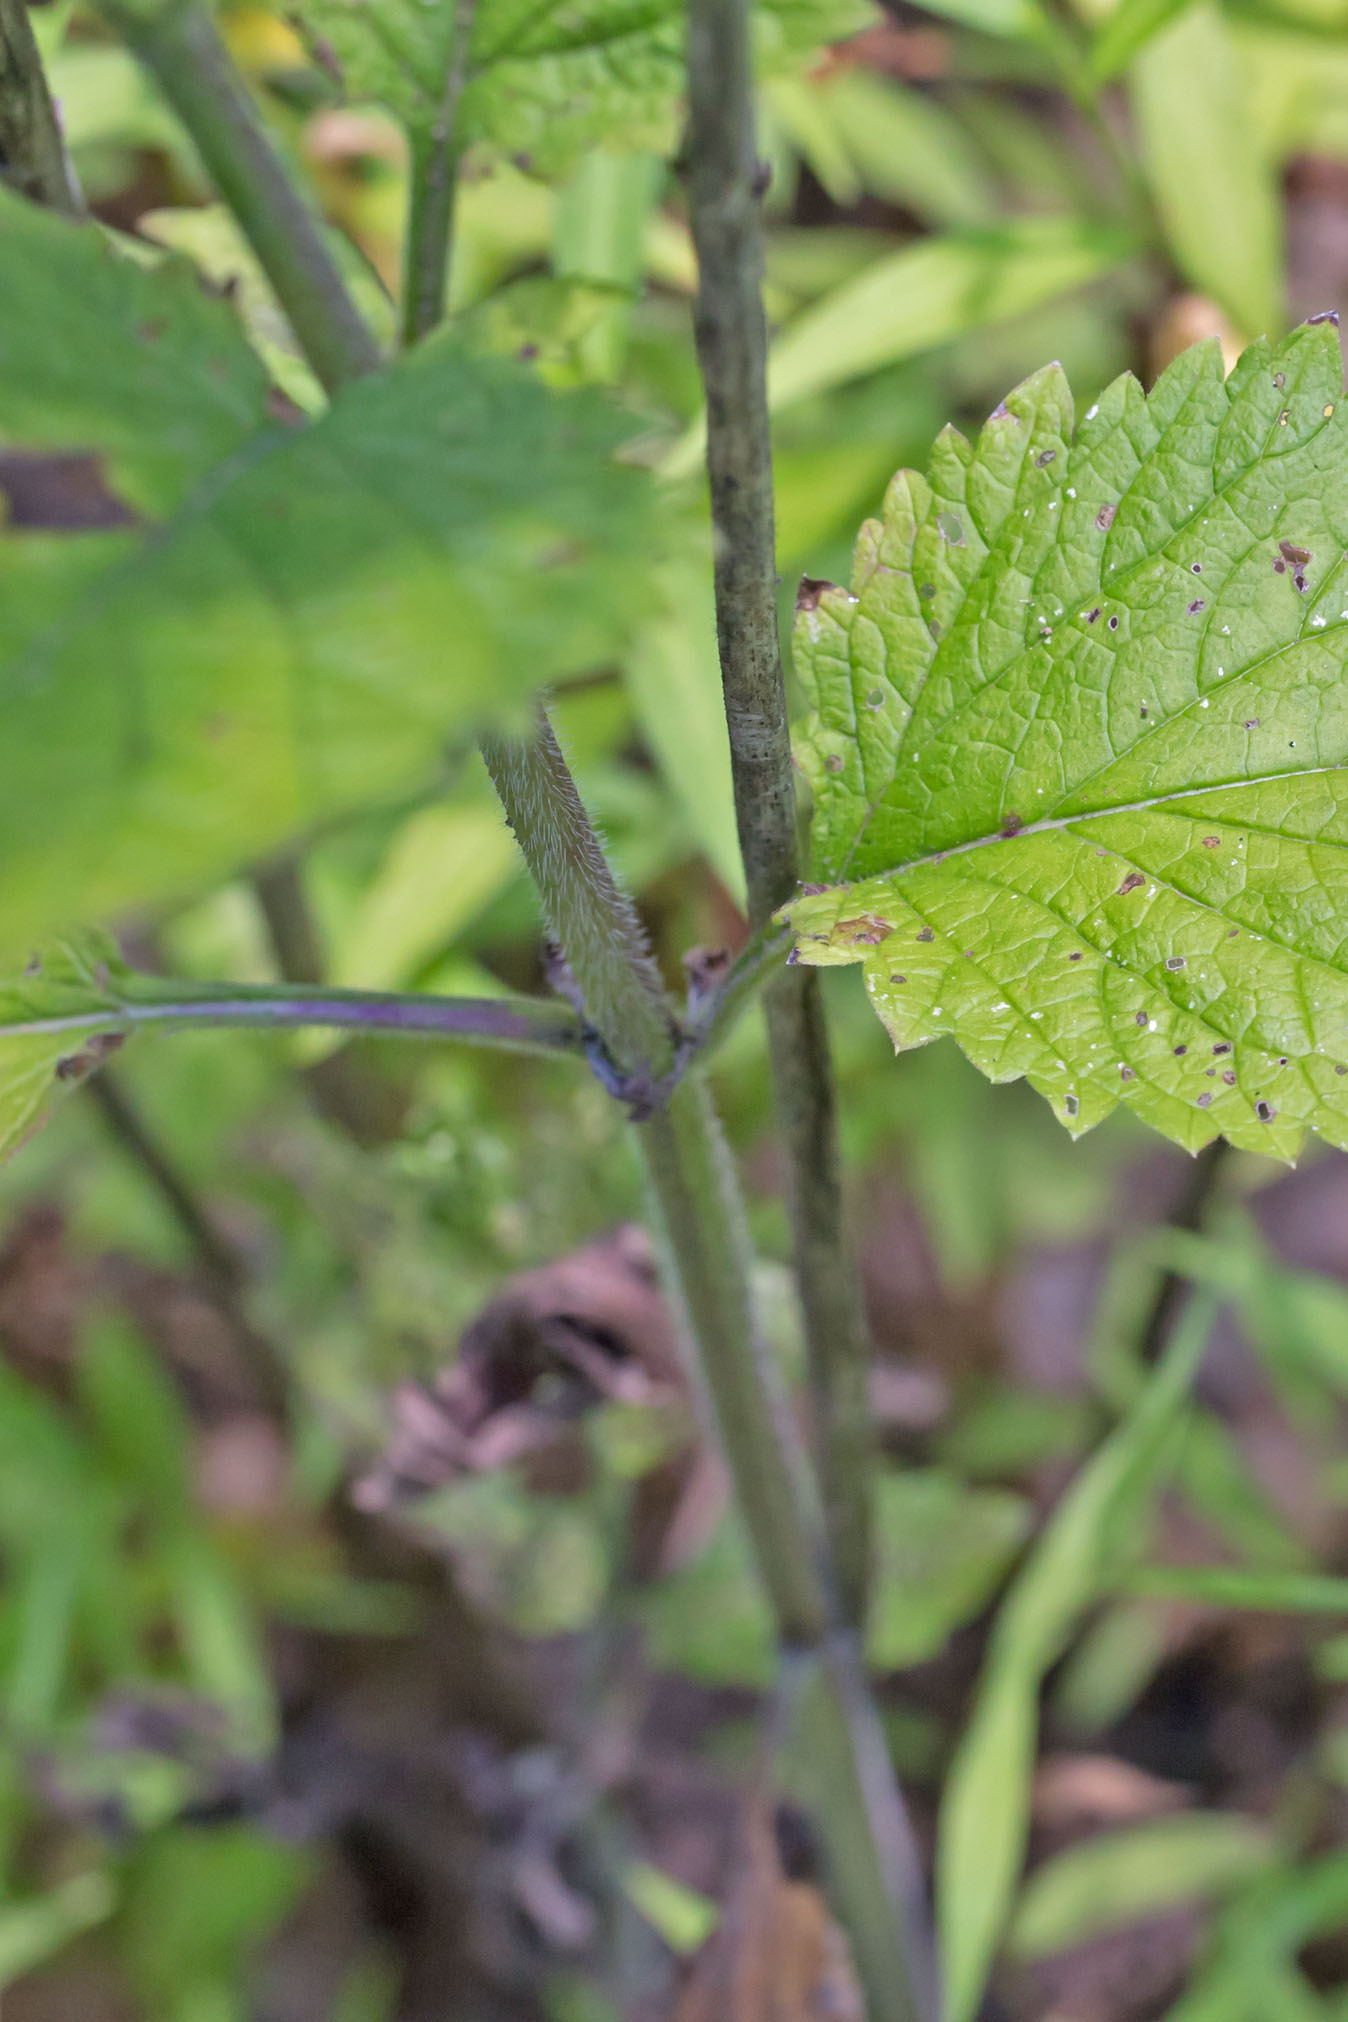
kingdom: Plantae
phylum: Tracheophyta
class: Magnoliopsida
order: Lamiales
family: Verbenaceae
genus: Verbena
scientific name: Verbena urticifolia
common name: Nettle-leaved vervain
